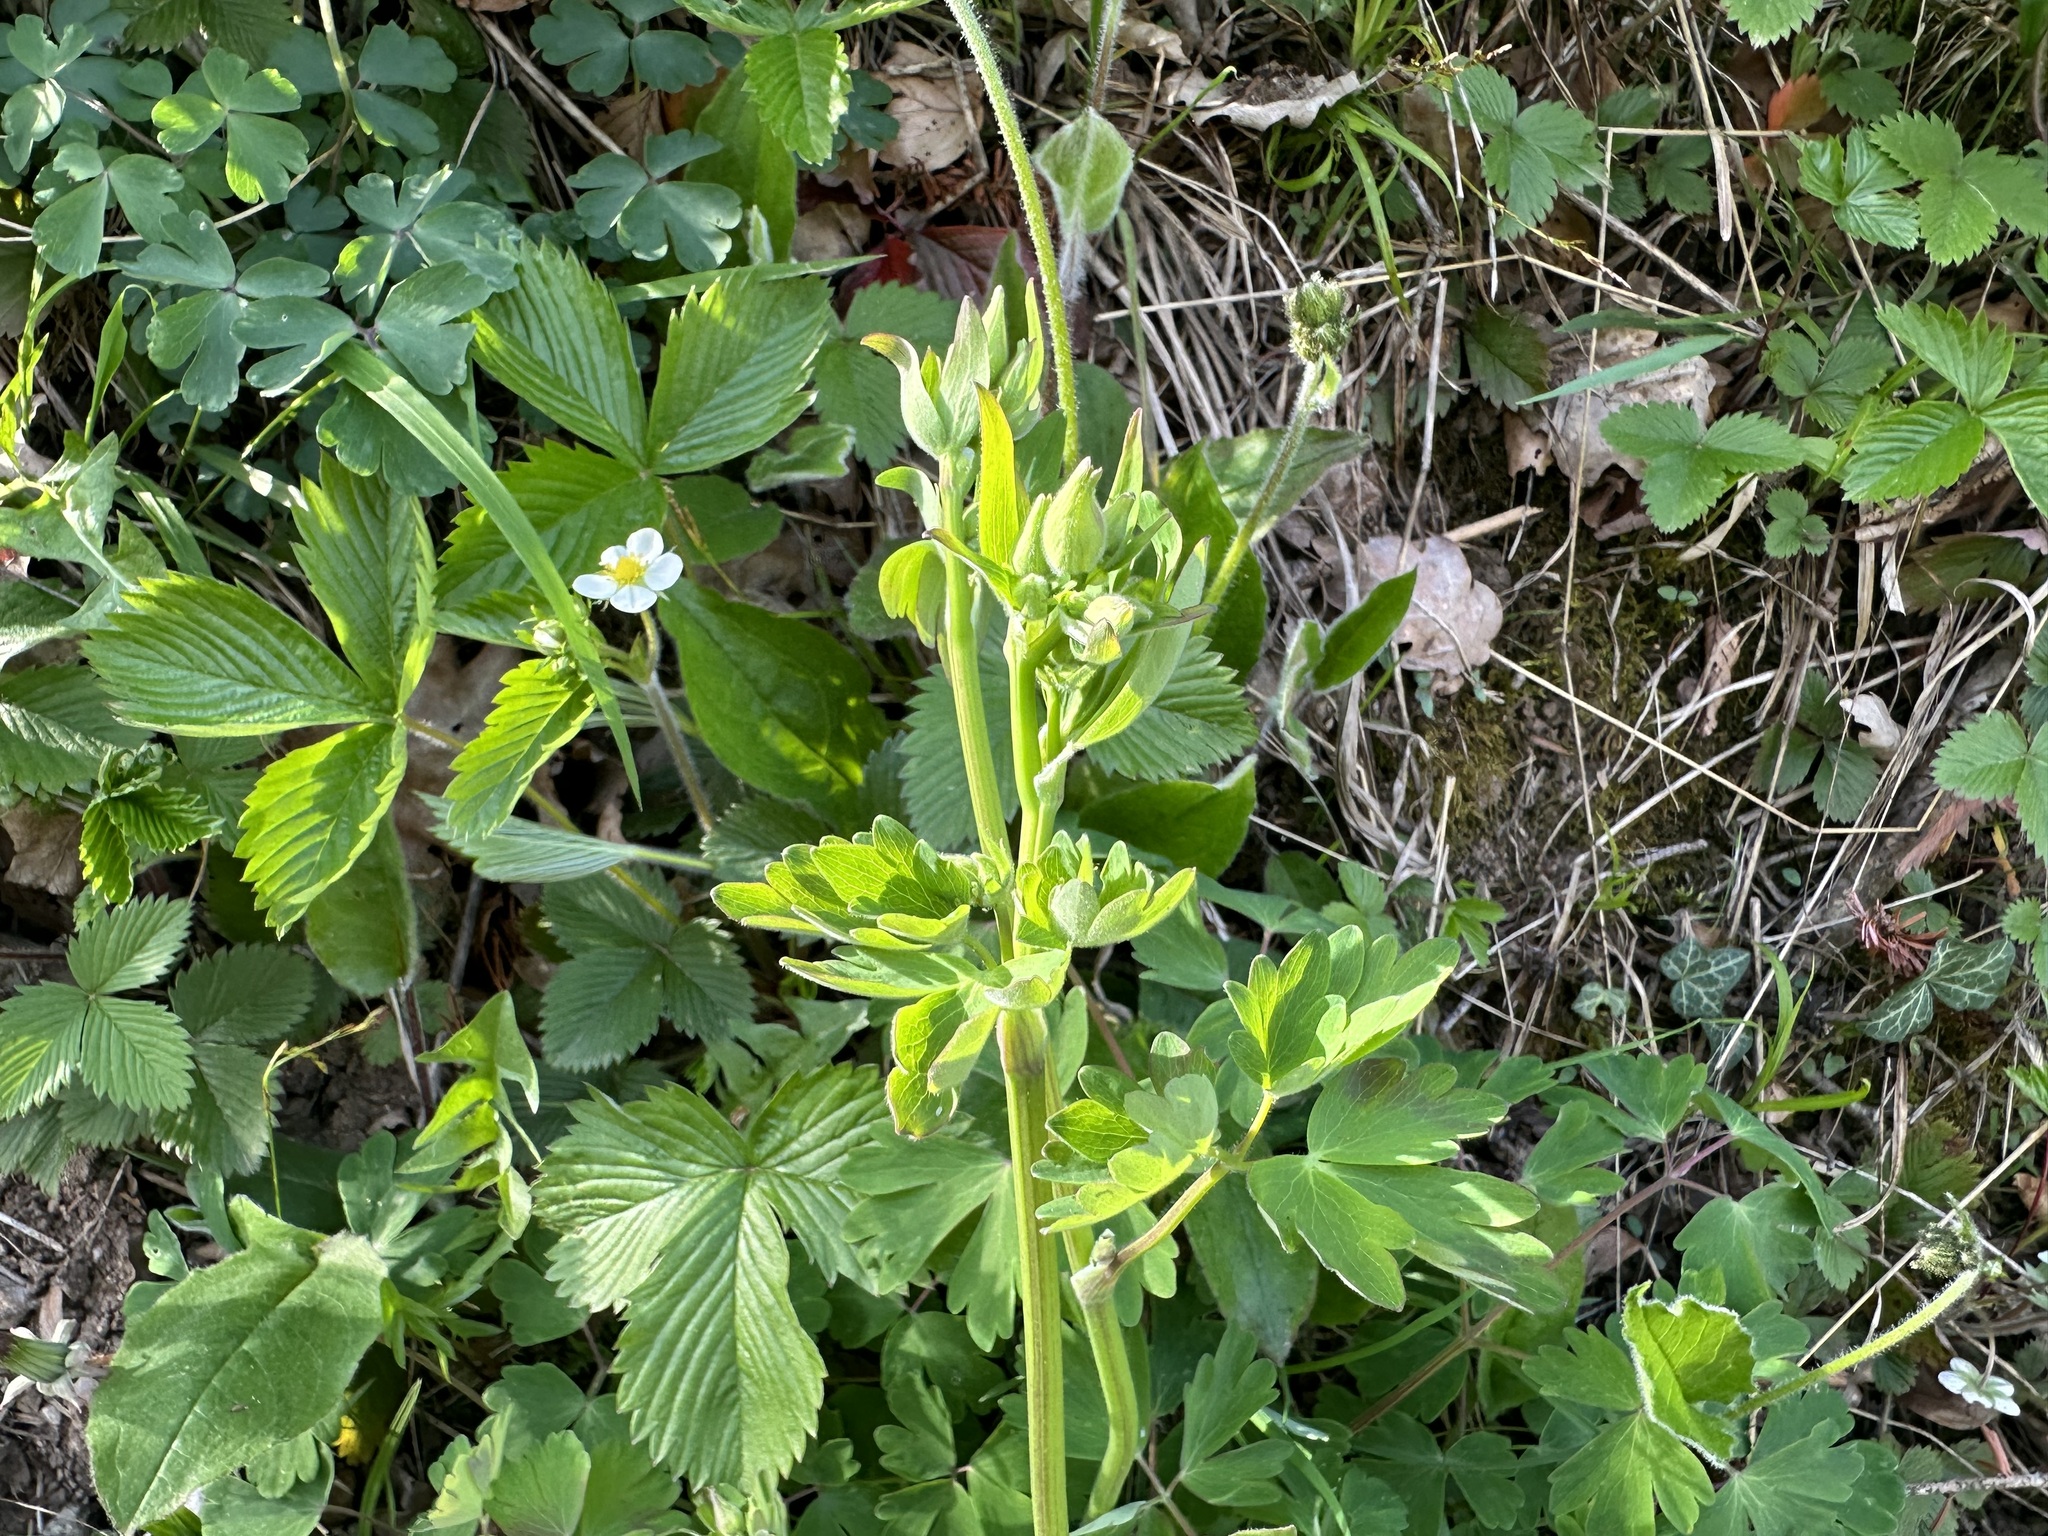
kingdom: Plantae
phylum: Tracheophyta
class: Magnoliopsida
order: Ranunculales
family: Ranunculaceae
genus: Aquilegia
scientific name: Aquilegia vulgaris
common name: Columbine
